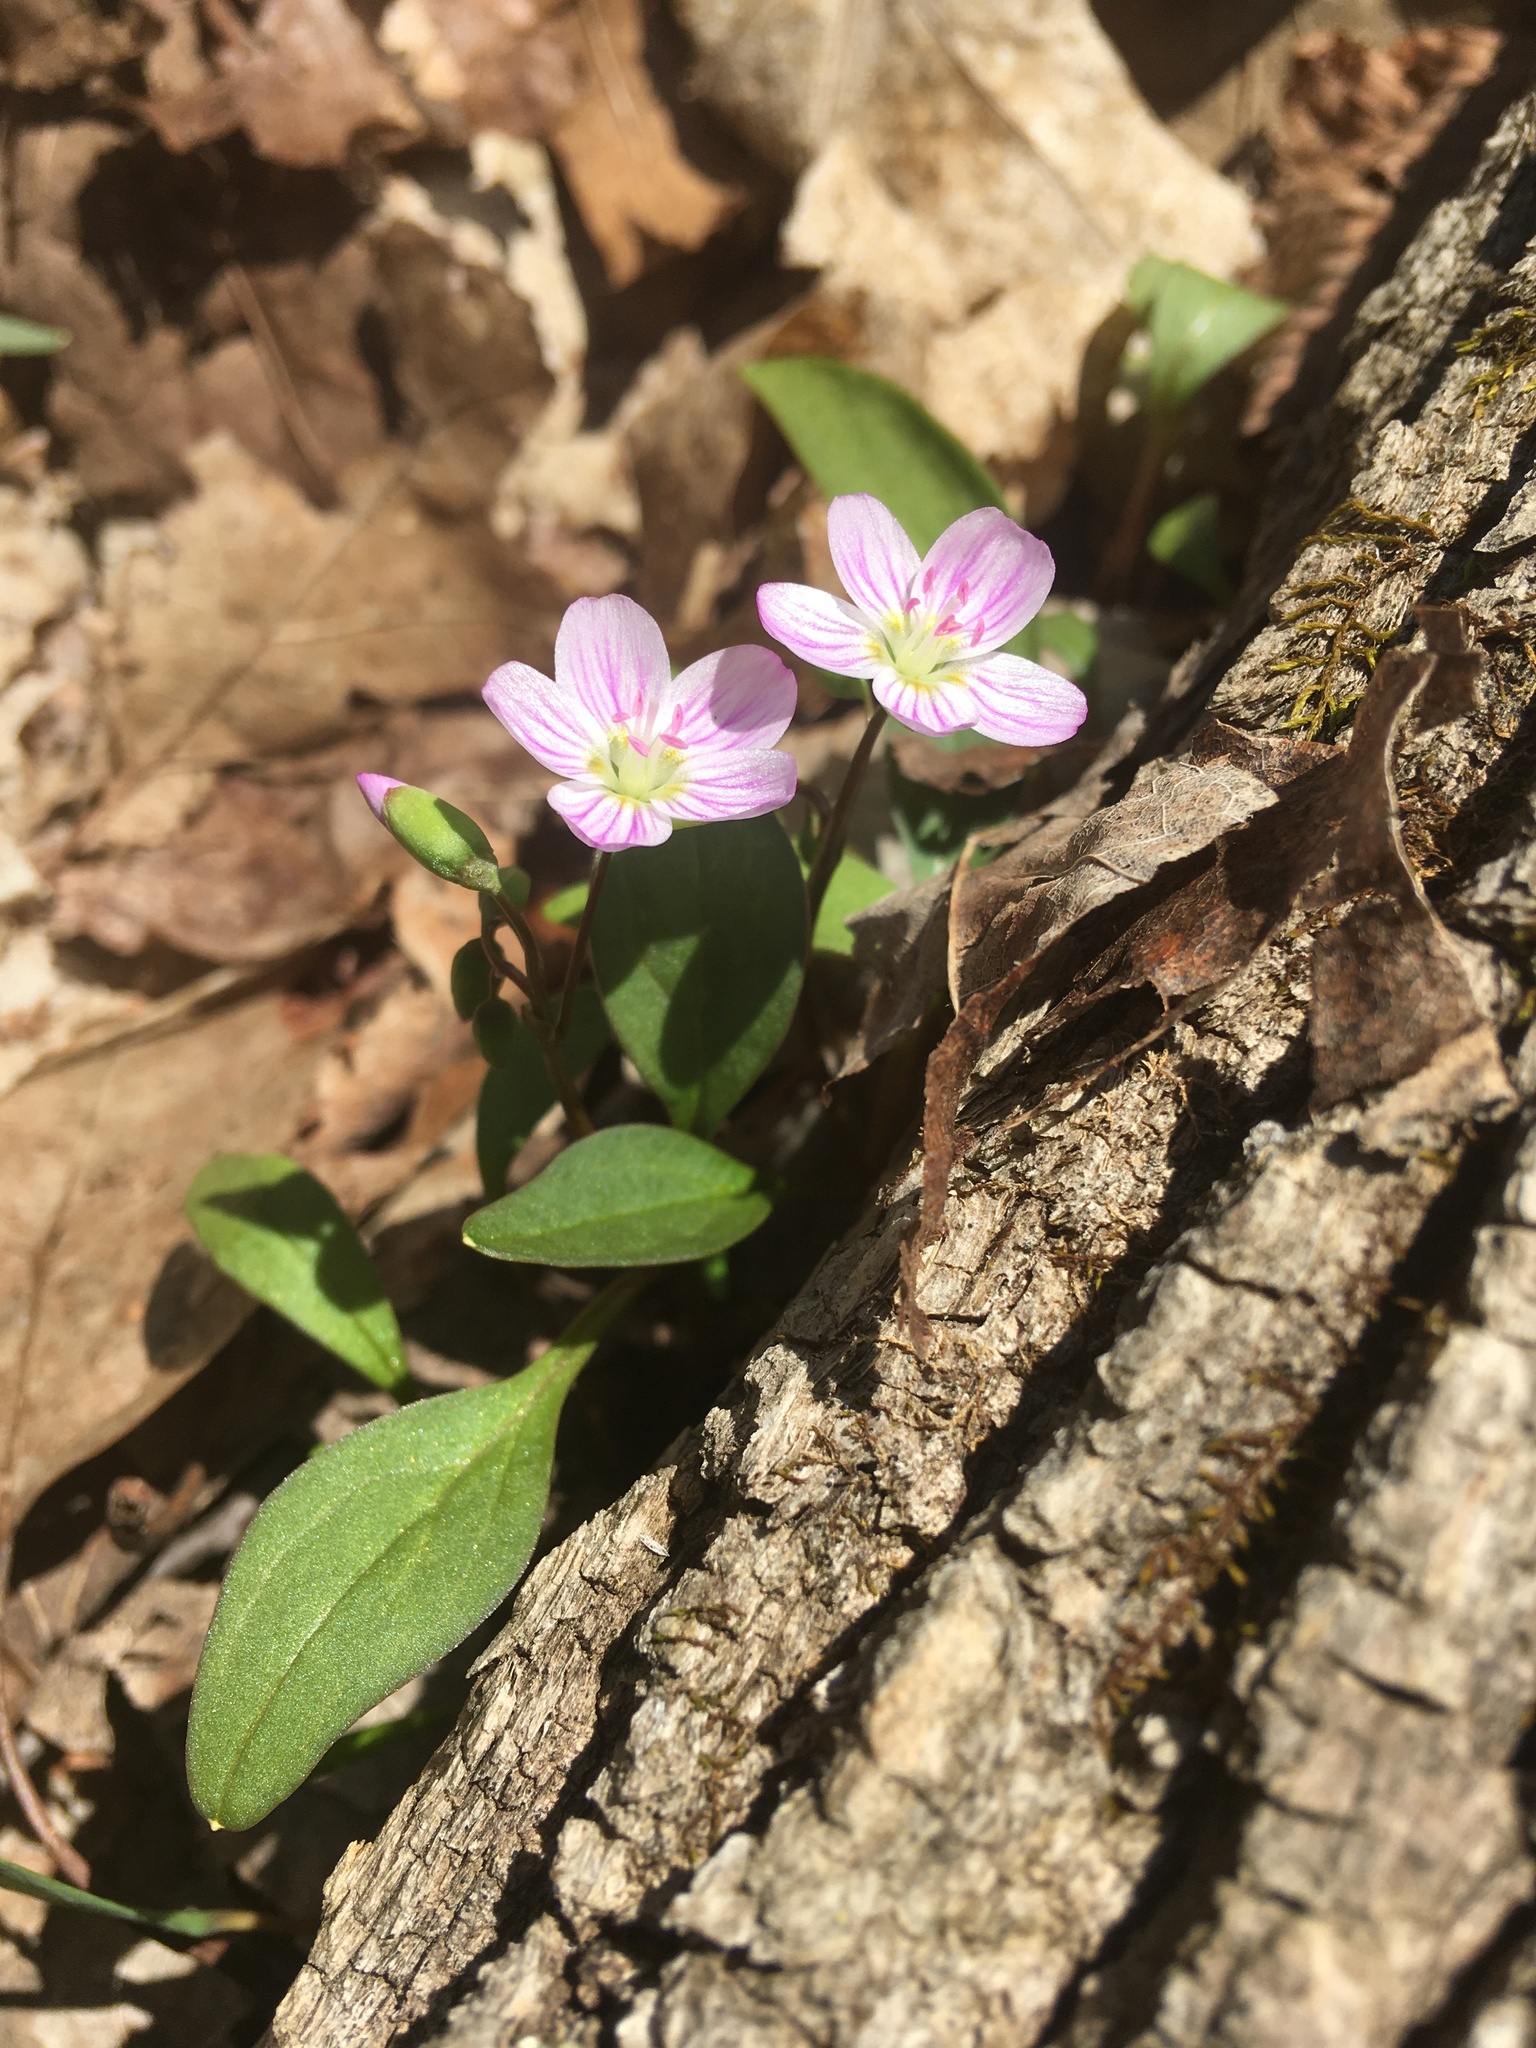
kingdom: Plantae
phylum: Tracheophyta
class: Magnoliopsida
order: Caryophyllales
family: Montiaceae
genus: Claytonia
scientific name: Claytonia caroliniana
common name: Carolina spring beauty
